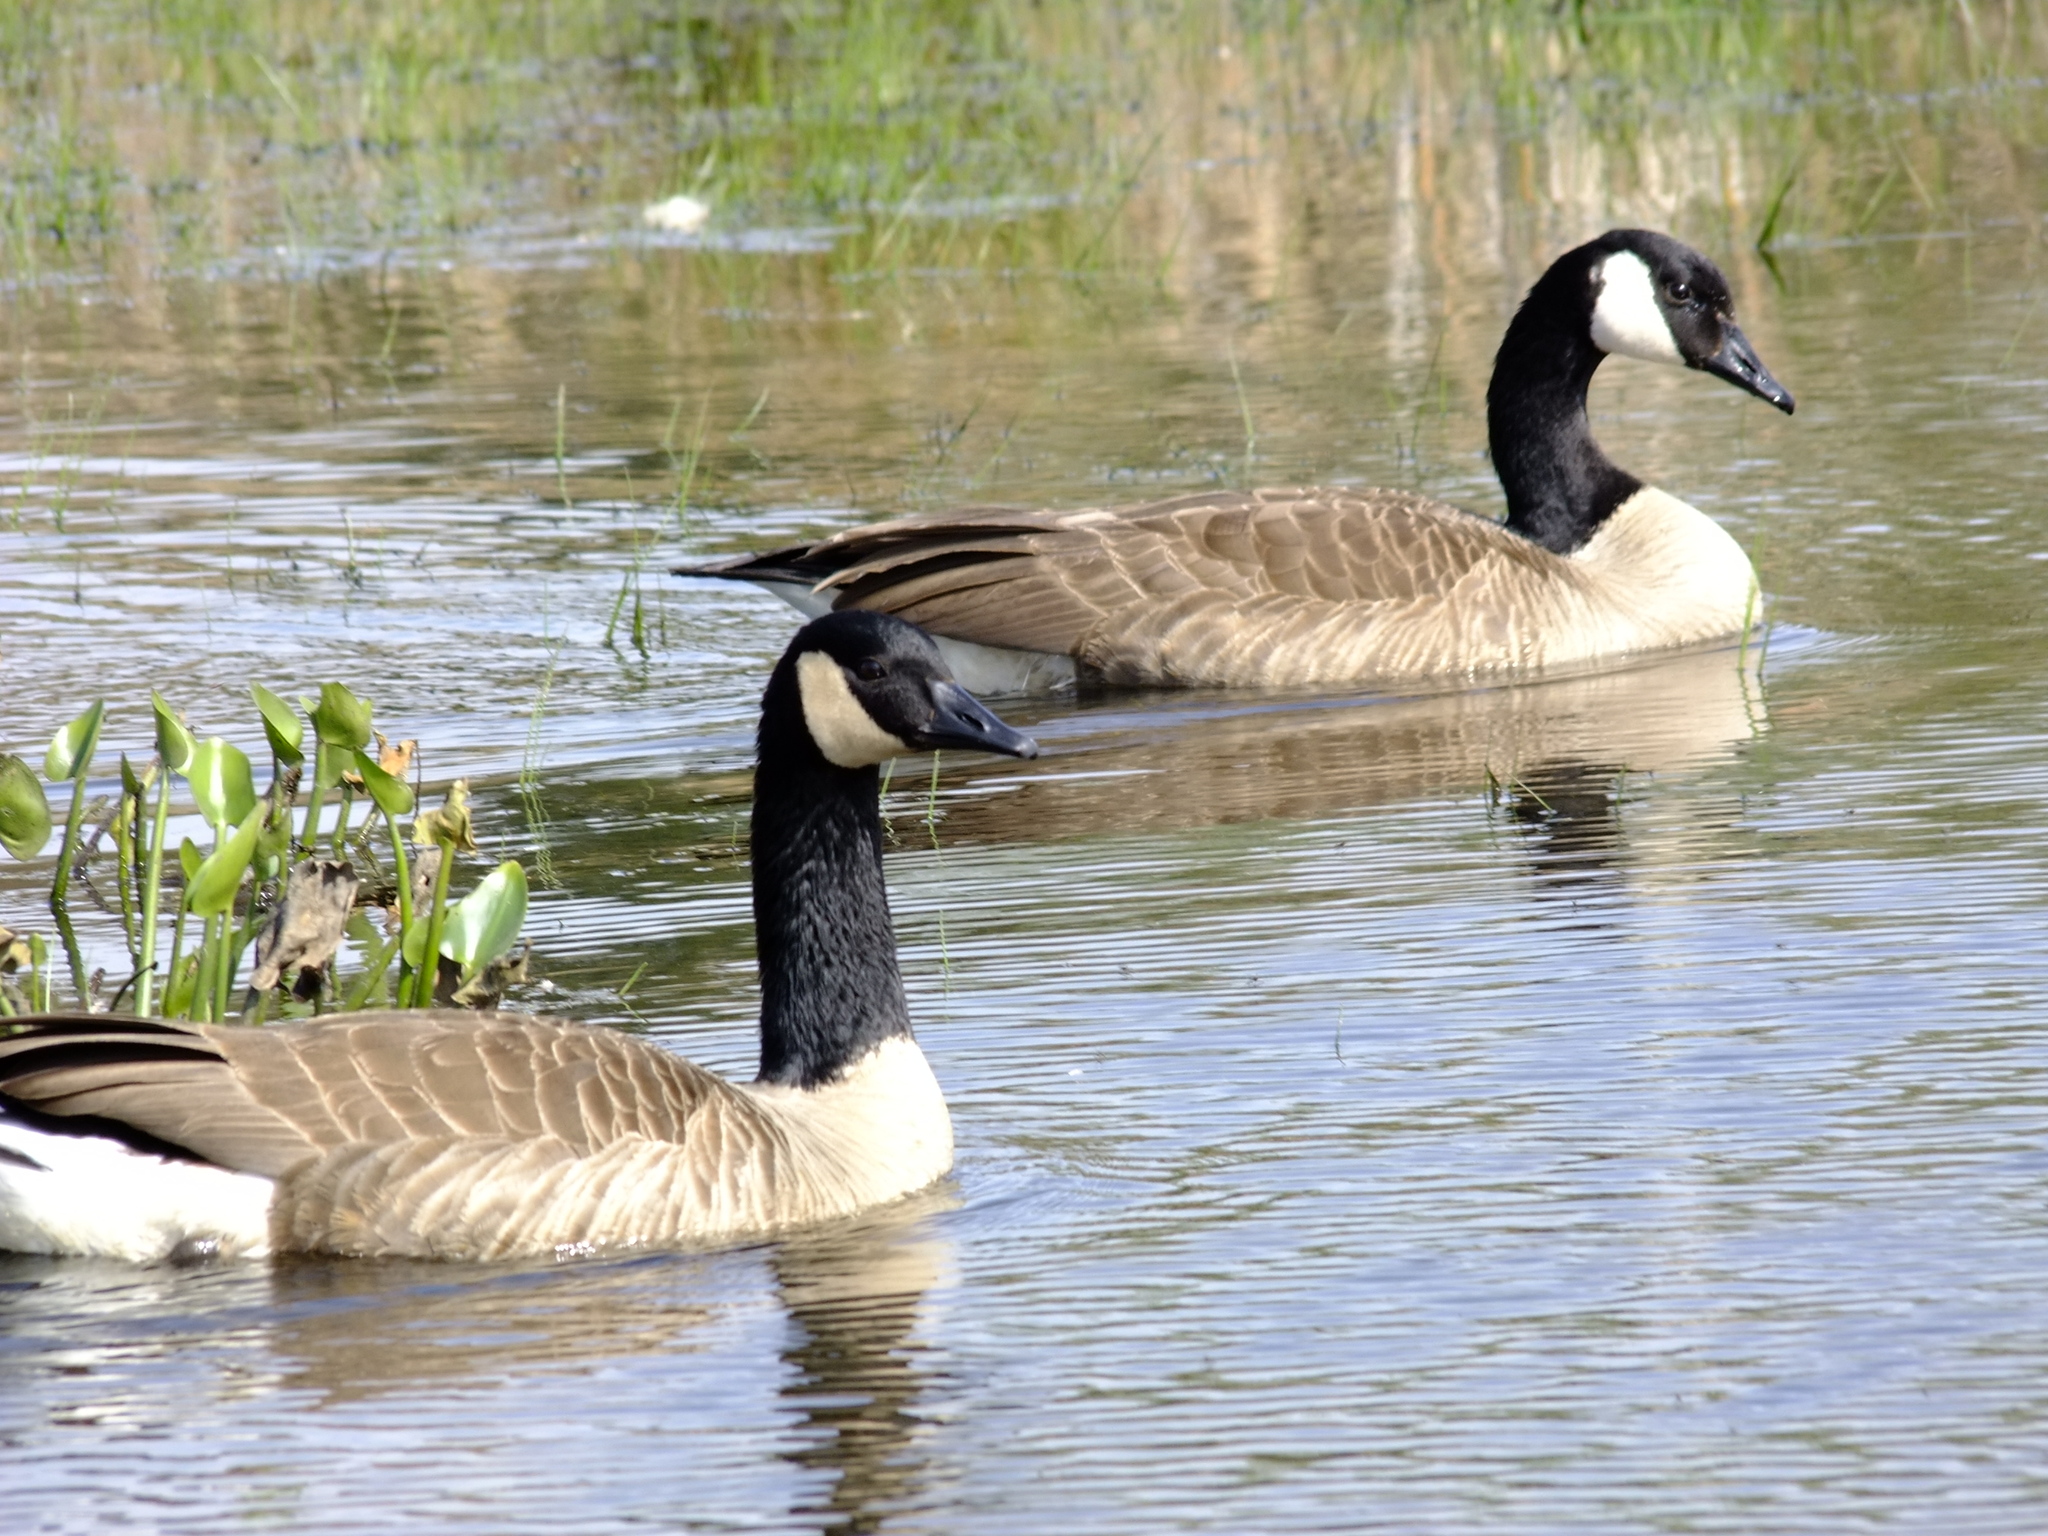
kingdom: Animalia
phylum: Chordata
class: Aves
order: Anseriformes
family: Anatidae
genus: Branta
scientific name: Branta canadensis
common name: Canada goose
